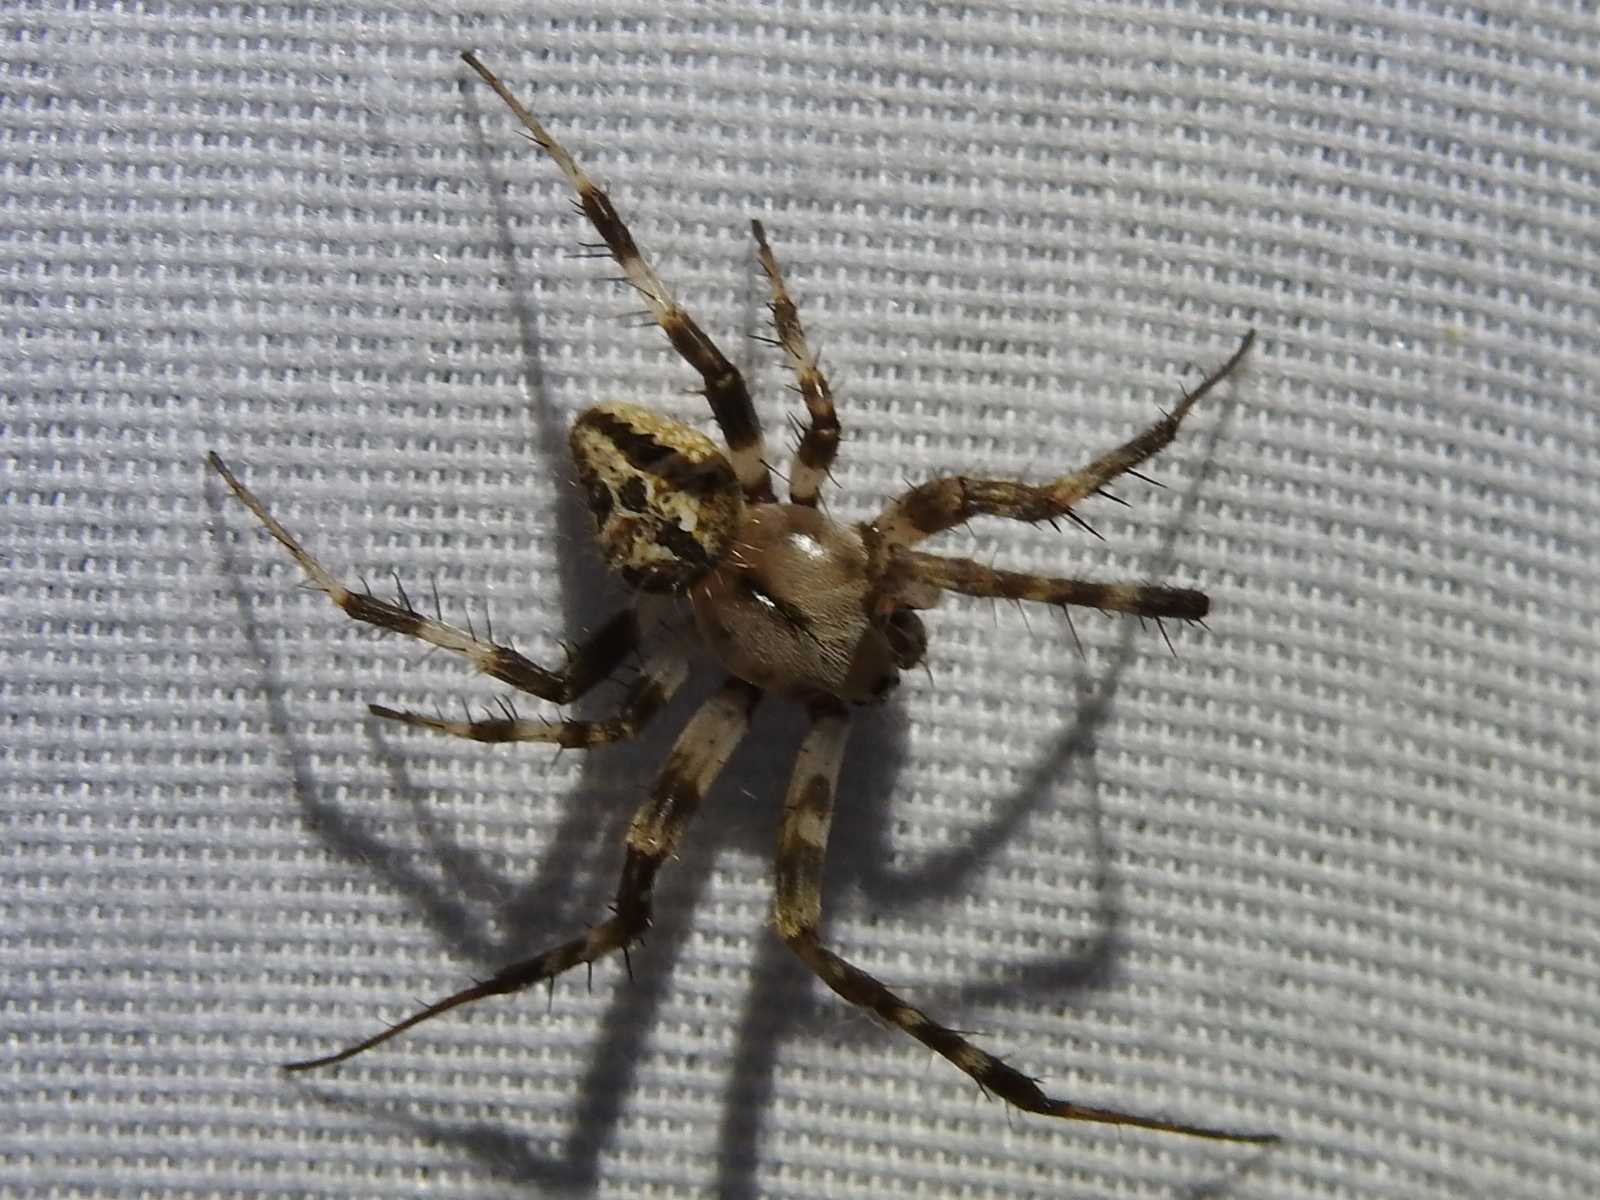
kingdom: Animalia
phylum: Arthropoda
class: Arachnida
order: Araneae
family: Araneidae
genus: Neoscona
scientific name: Neoscona utahana
